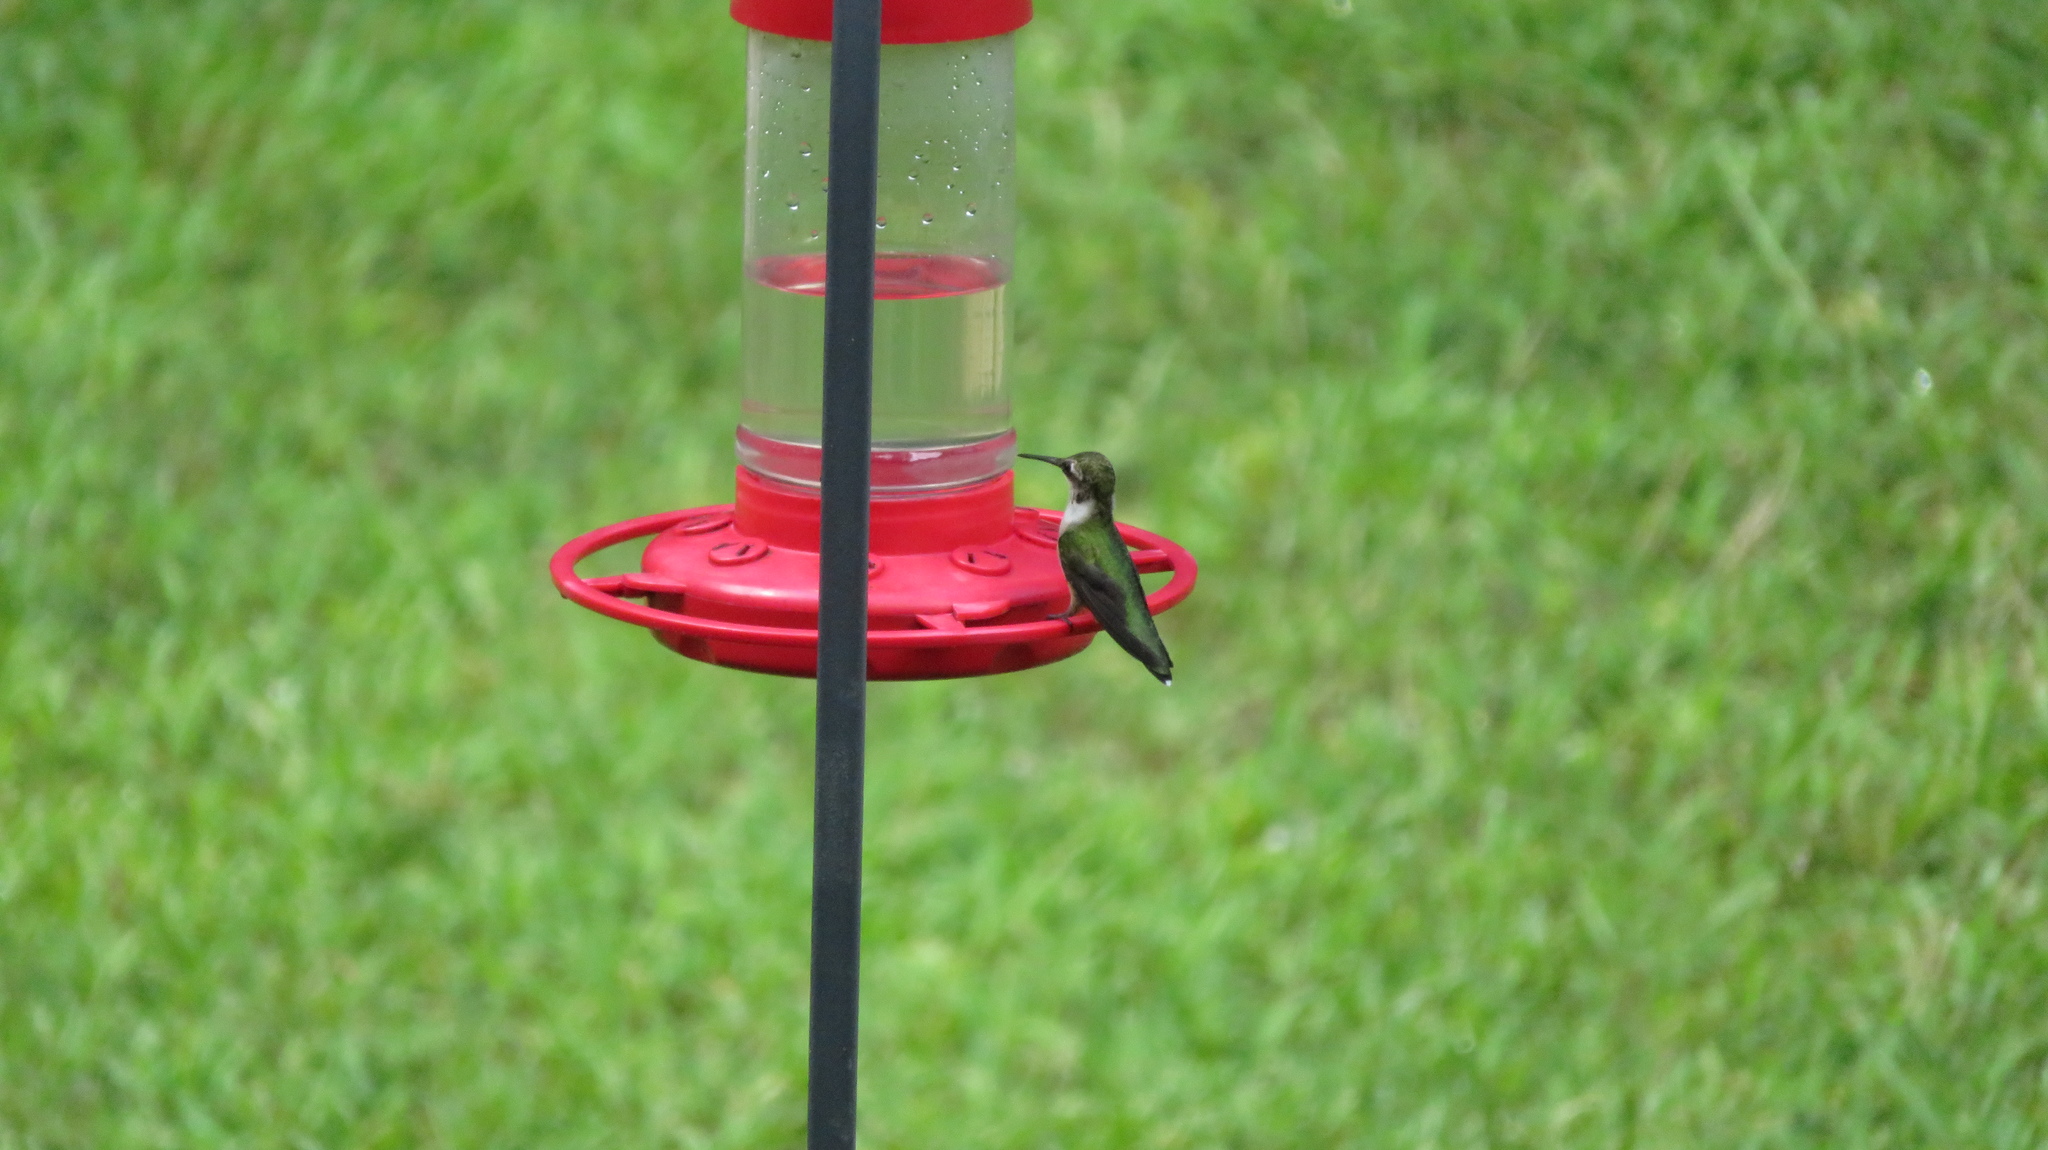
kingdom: Animalia
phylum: Chordata
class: Aves
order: Apodiformes
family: Trochilidae
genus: Archilochus
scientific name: Archilochus colubris
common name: Ruby-throated hummingbird
